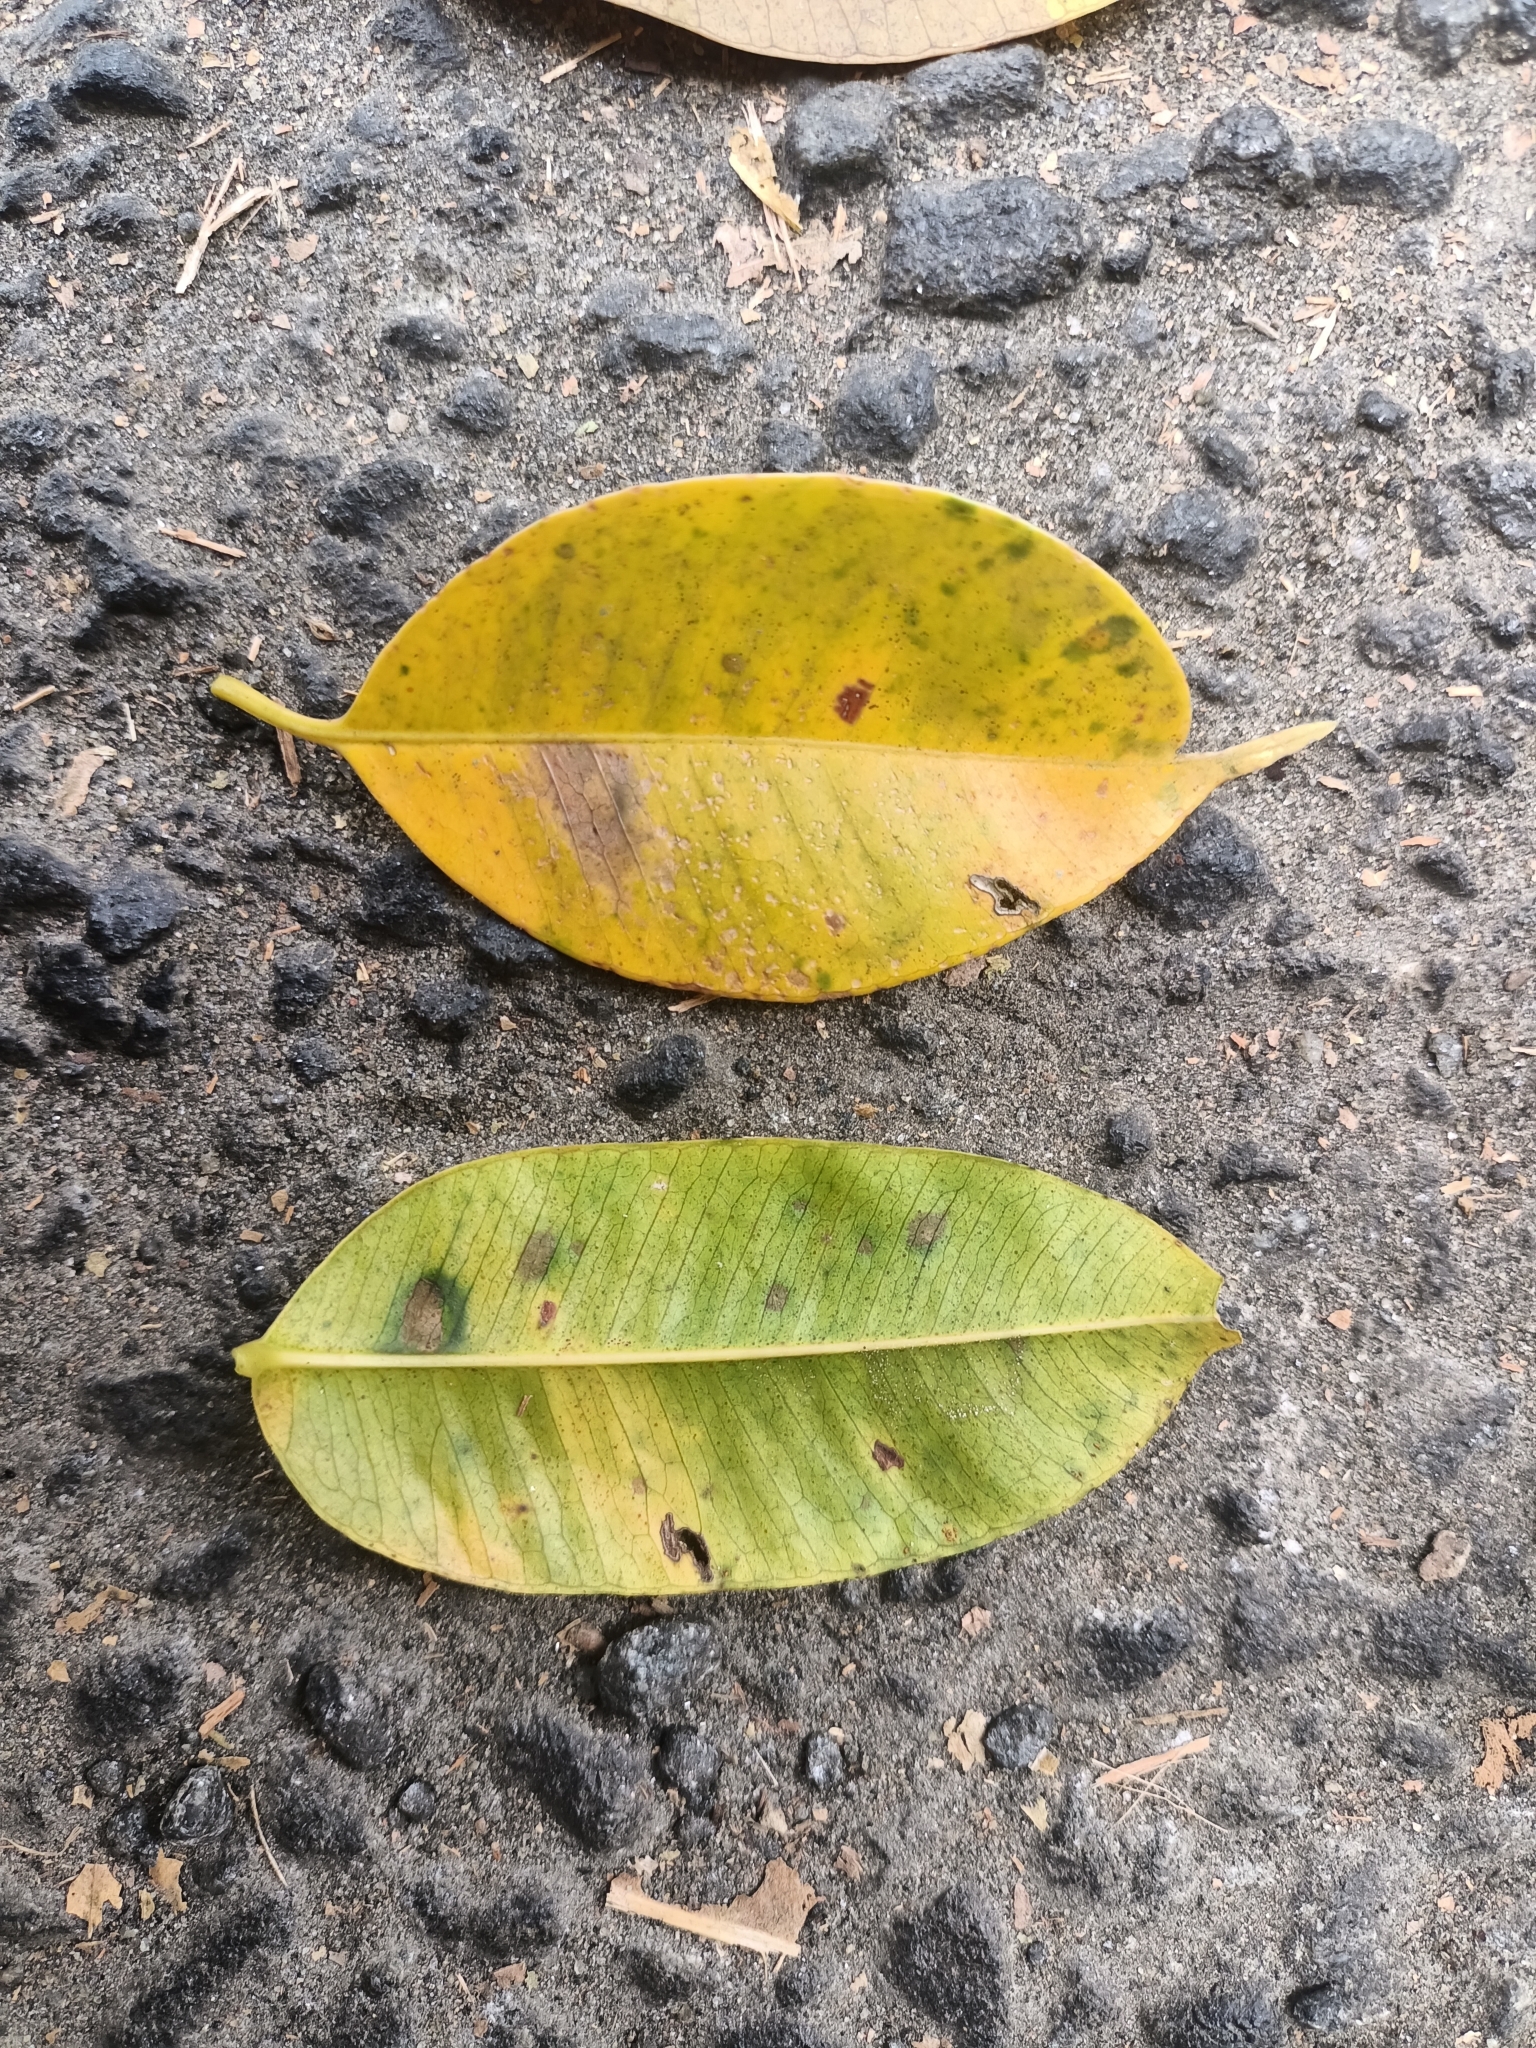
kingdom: Plantae
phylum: Tracheophyta
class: Magnoliopsida
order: Sapindales
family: Anacardiaceae
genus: Spondias
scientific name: Spondias pinnata
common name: Common hog-plum
